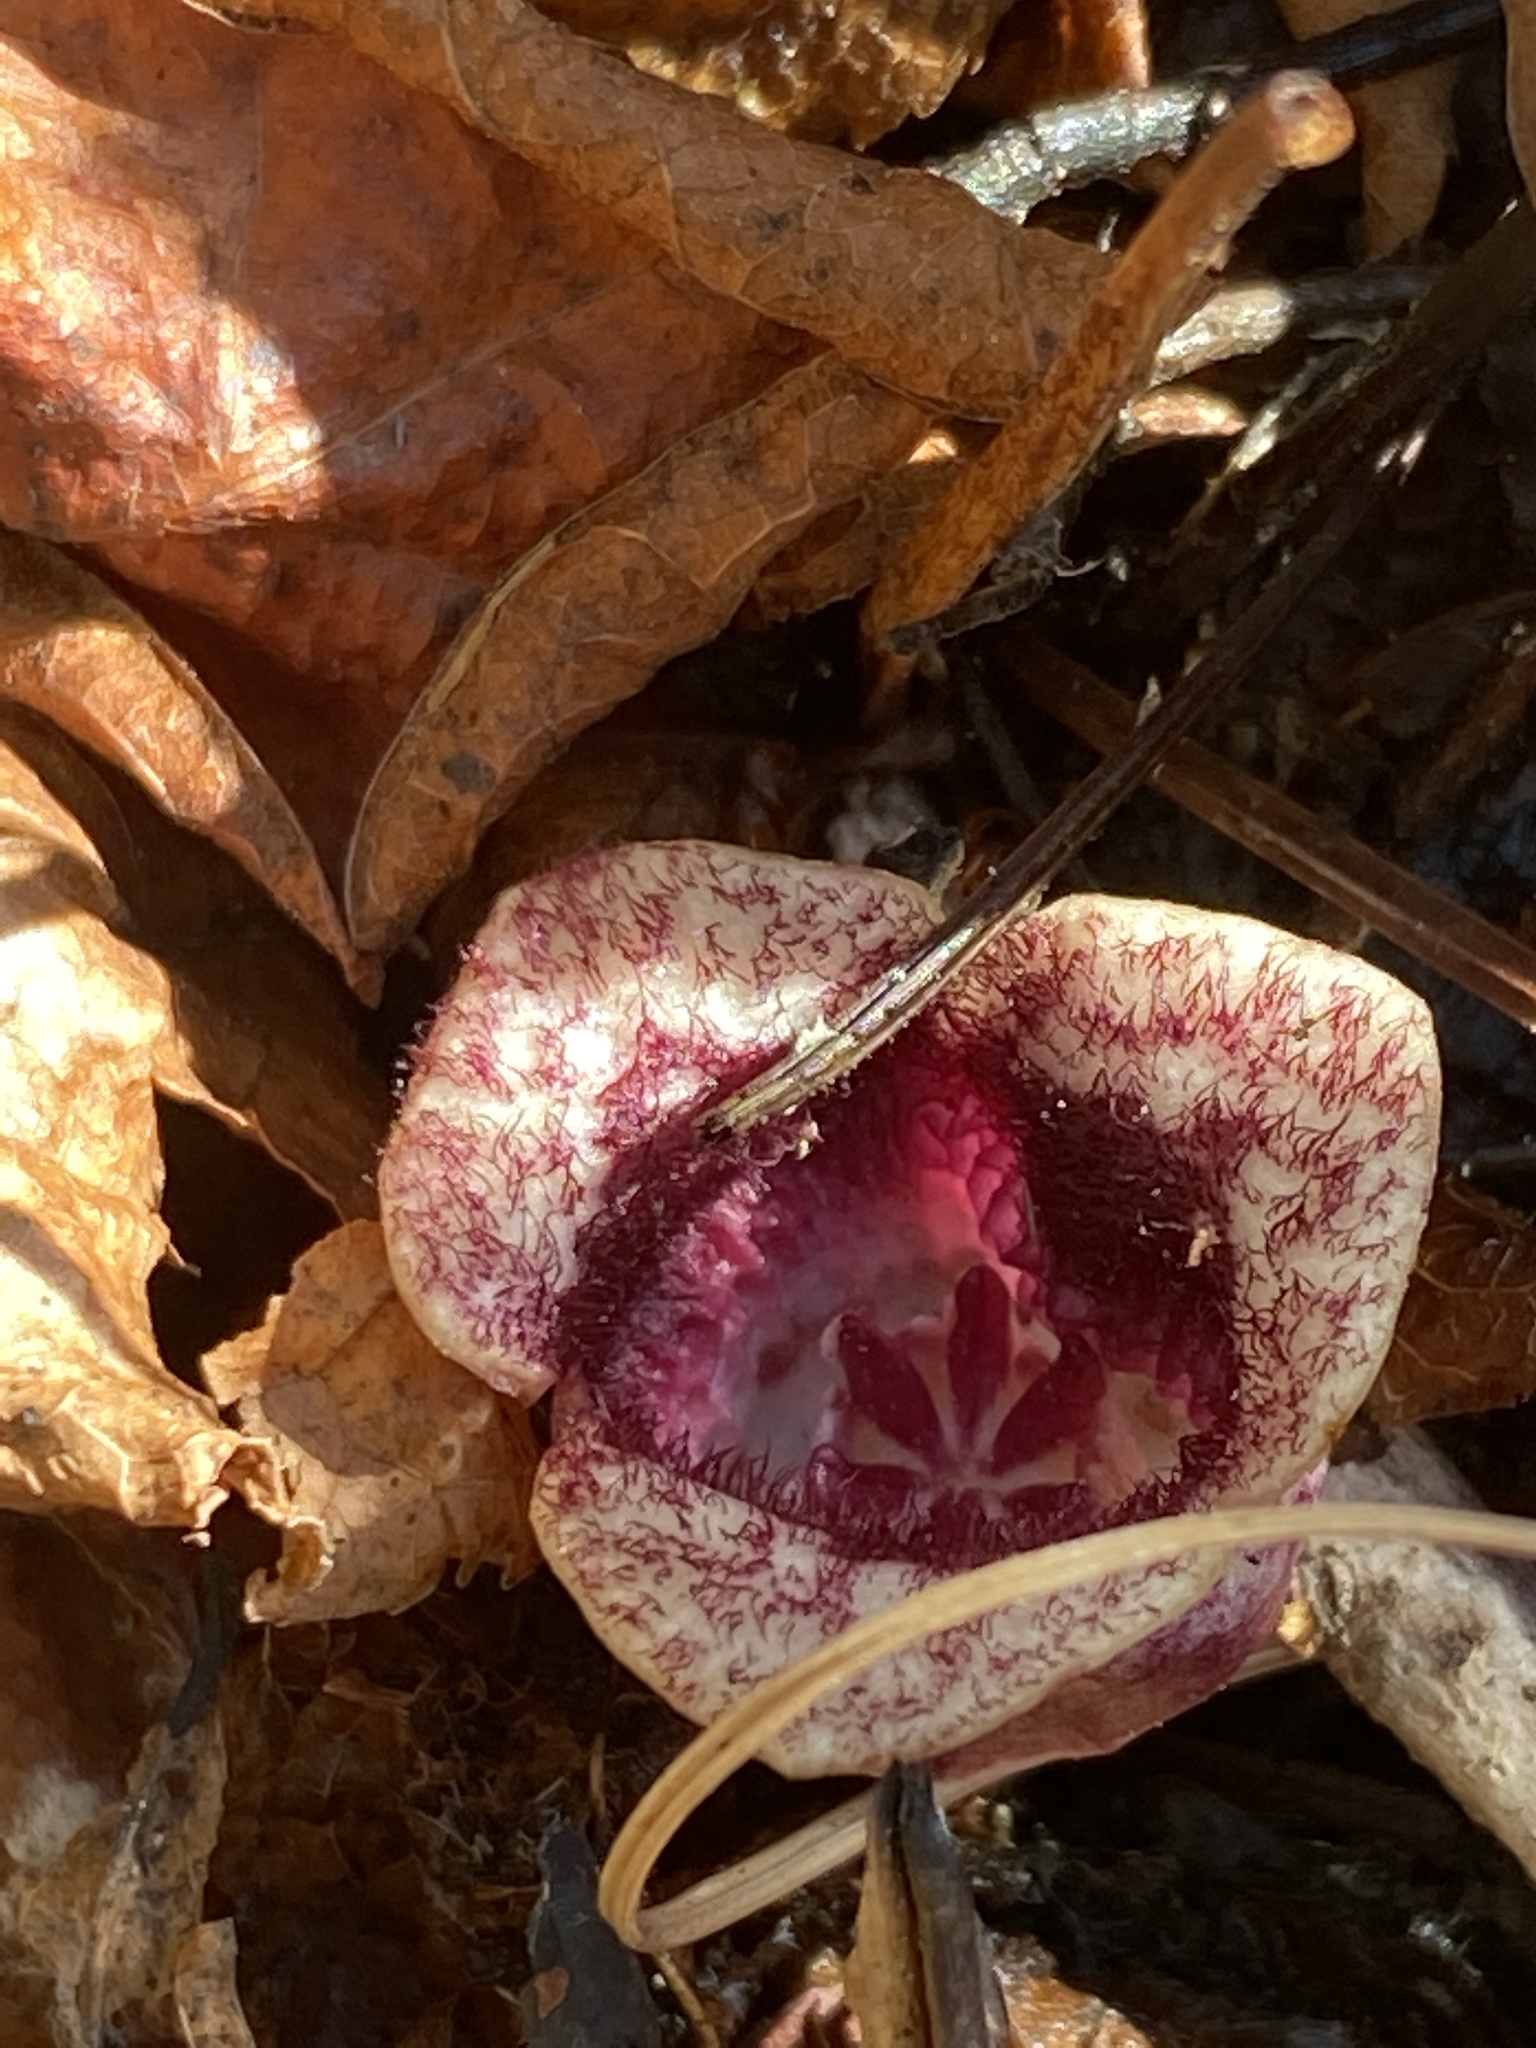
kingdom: Plantae
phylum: Tracheophyta
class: Magnoliopsida
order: Piperales
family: Aristolochiaceae
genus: Hexastylis
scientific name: Hexastylis sorriei
